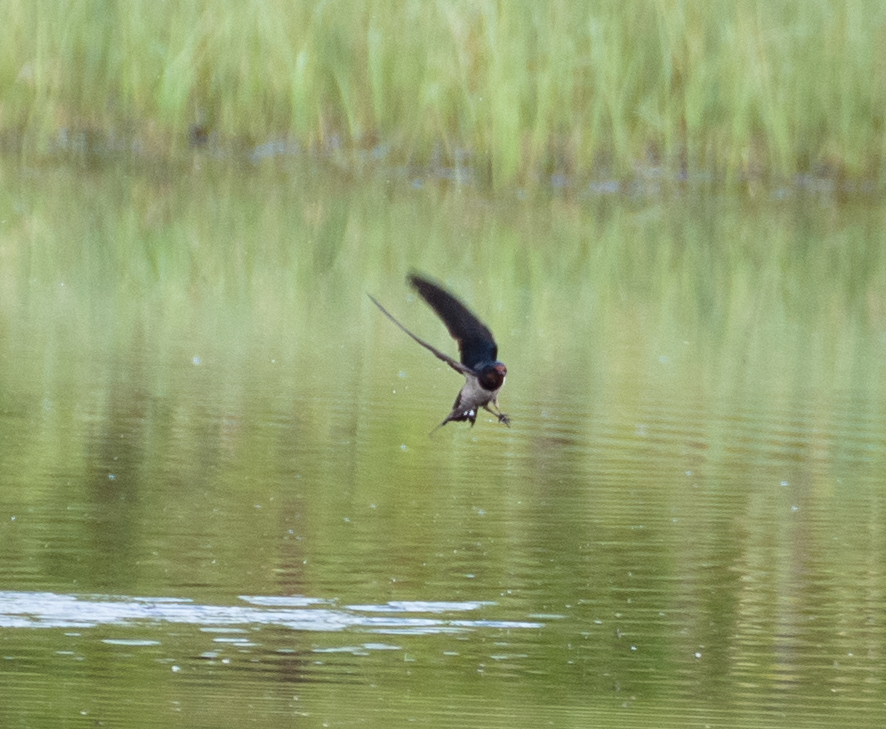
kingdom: Animalia
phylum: Chordata
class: Aves
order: Passeriformes
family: Hirundinidae
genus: Hirundo
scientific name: Hirundo rustica
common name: Barn swallow
